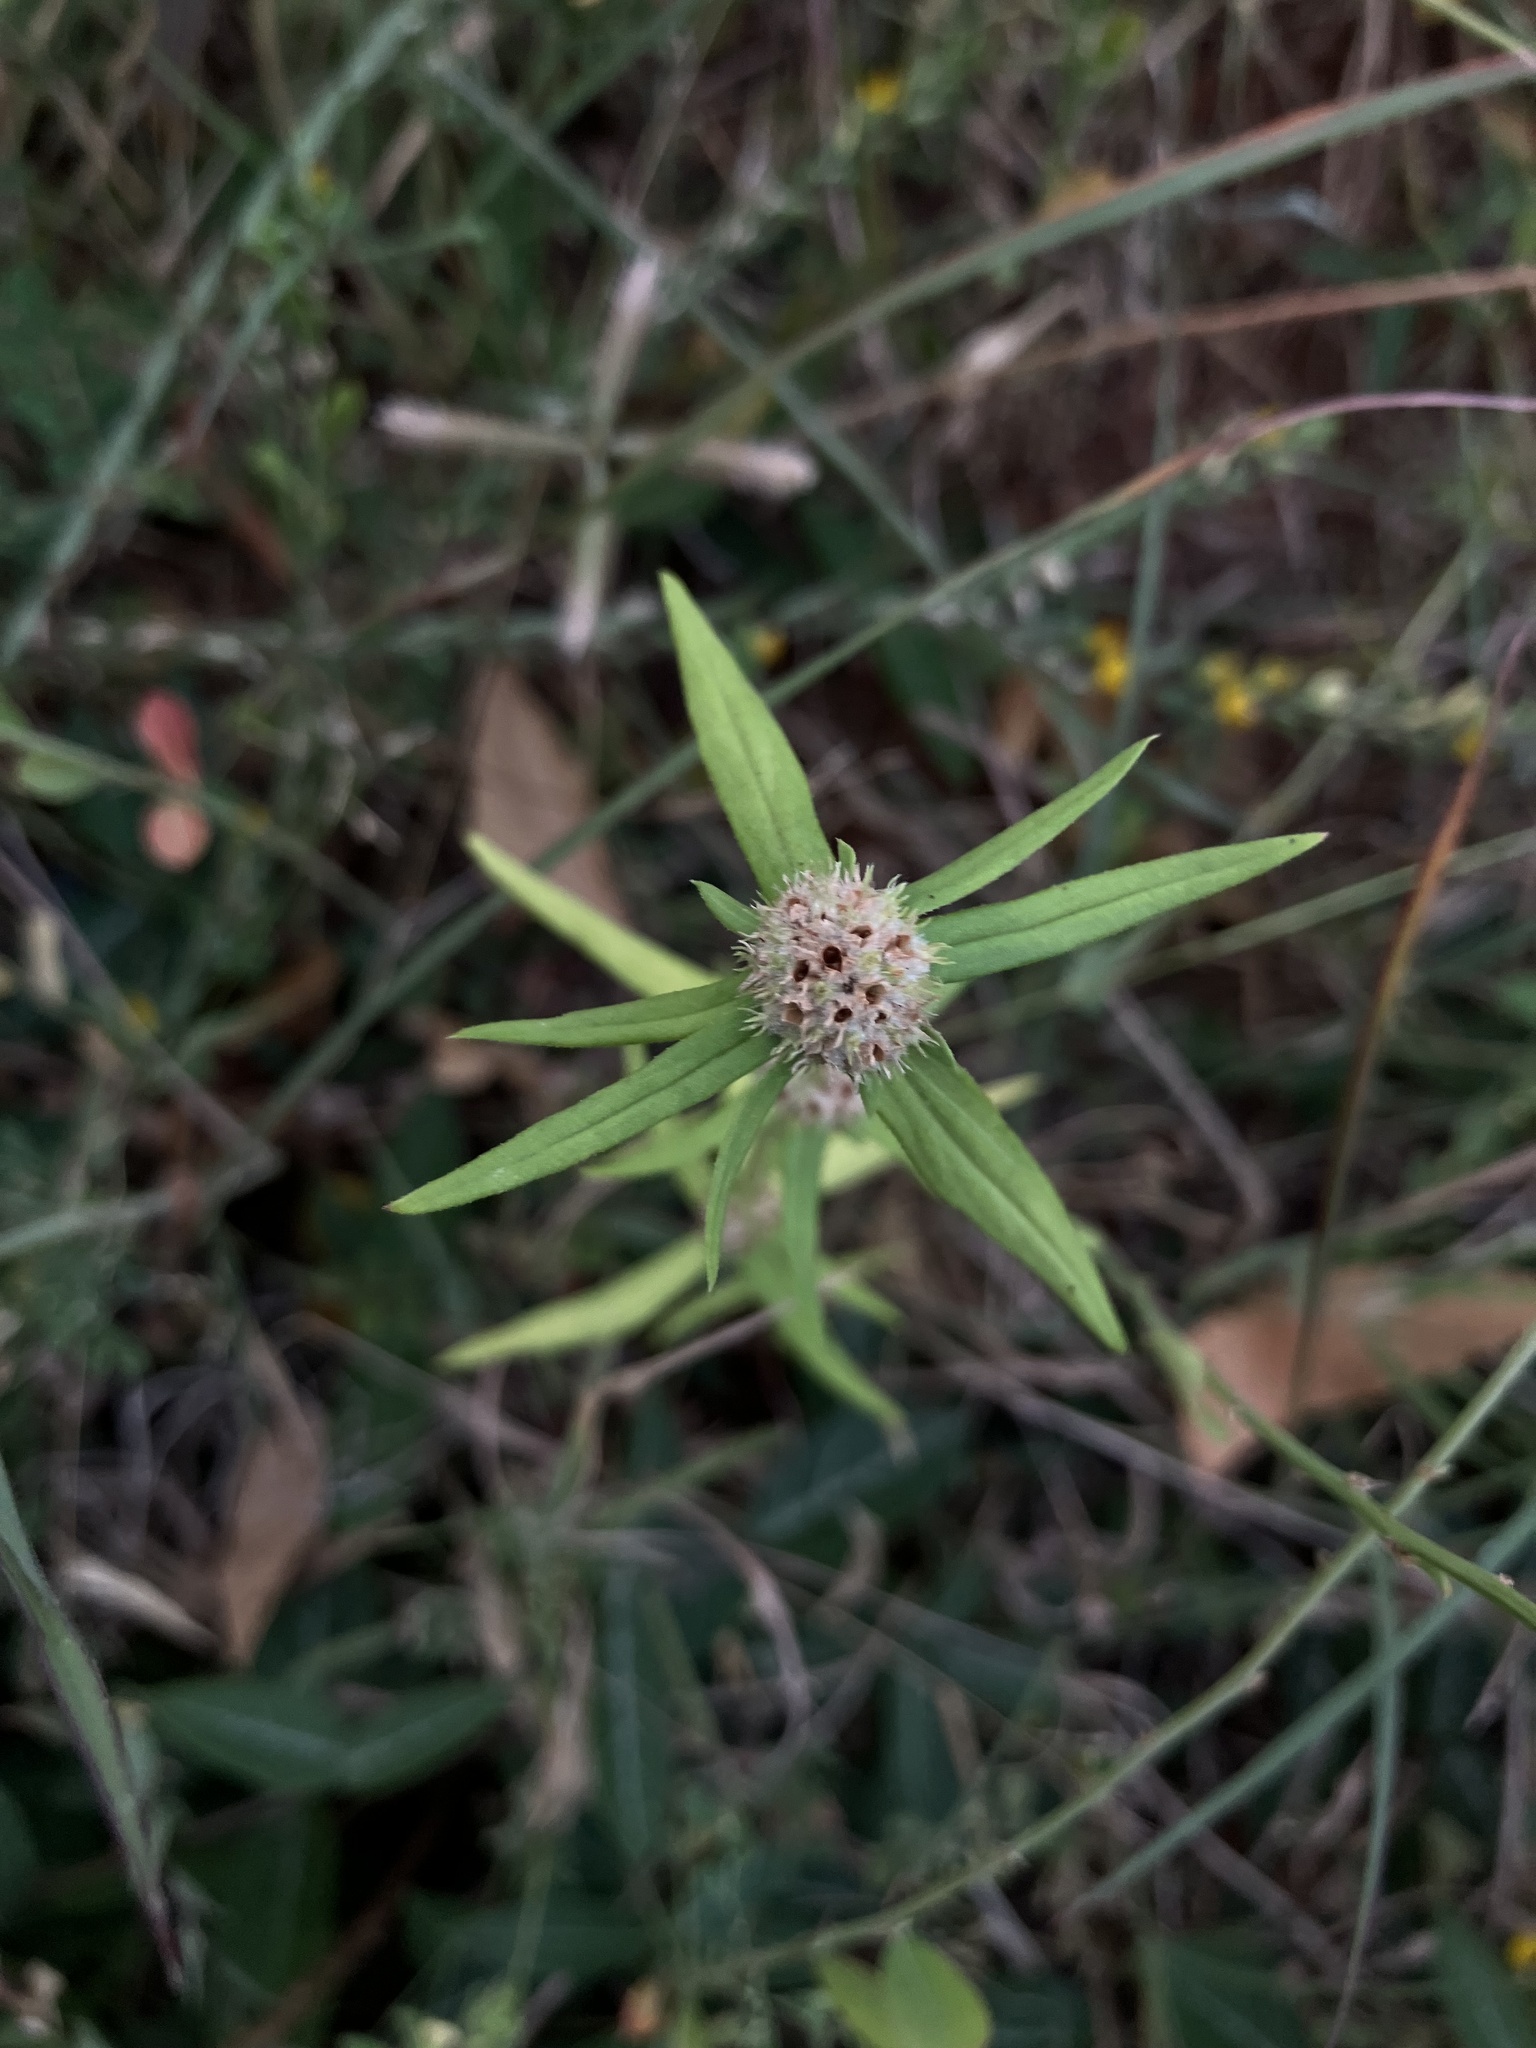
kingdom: Plantae
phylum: Tracheophyta
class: Magnoliopsida
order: Gentianales
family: Rubiaceae
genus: Spermacoce
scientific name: Spermacoce pusilla
